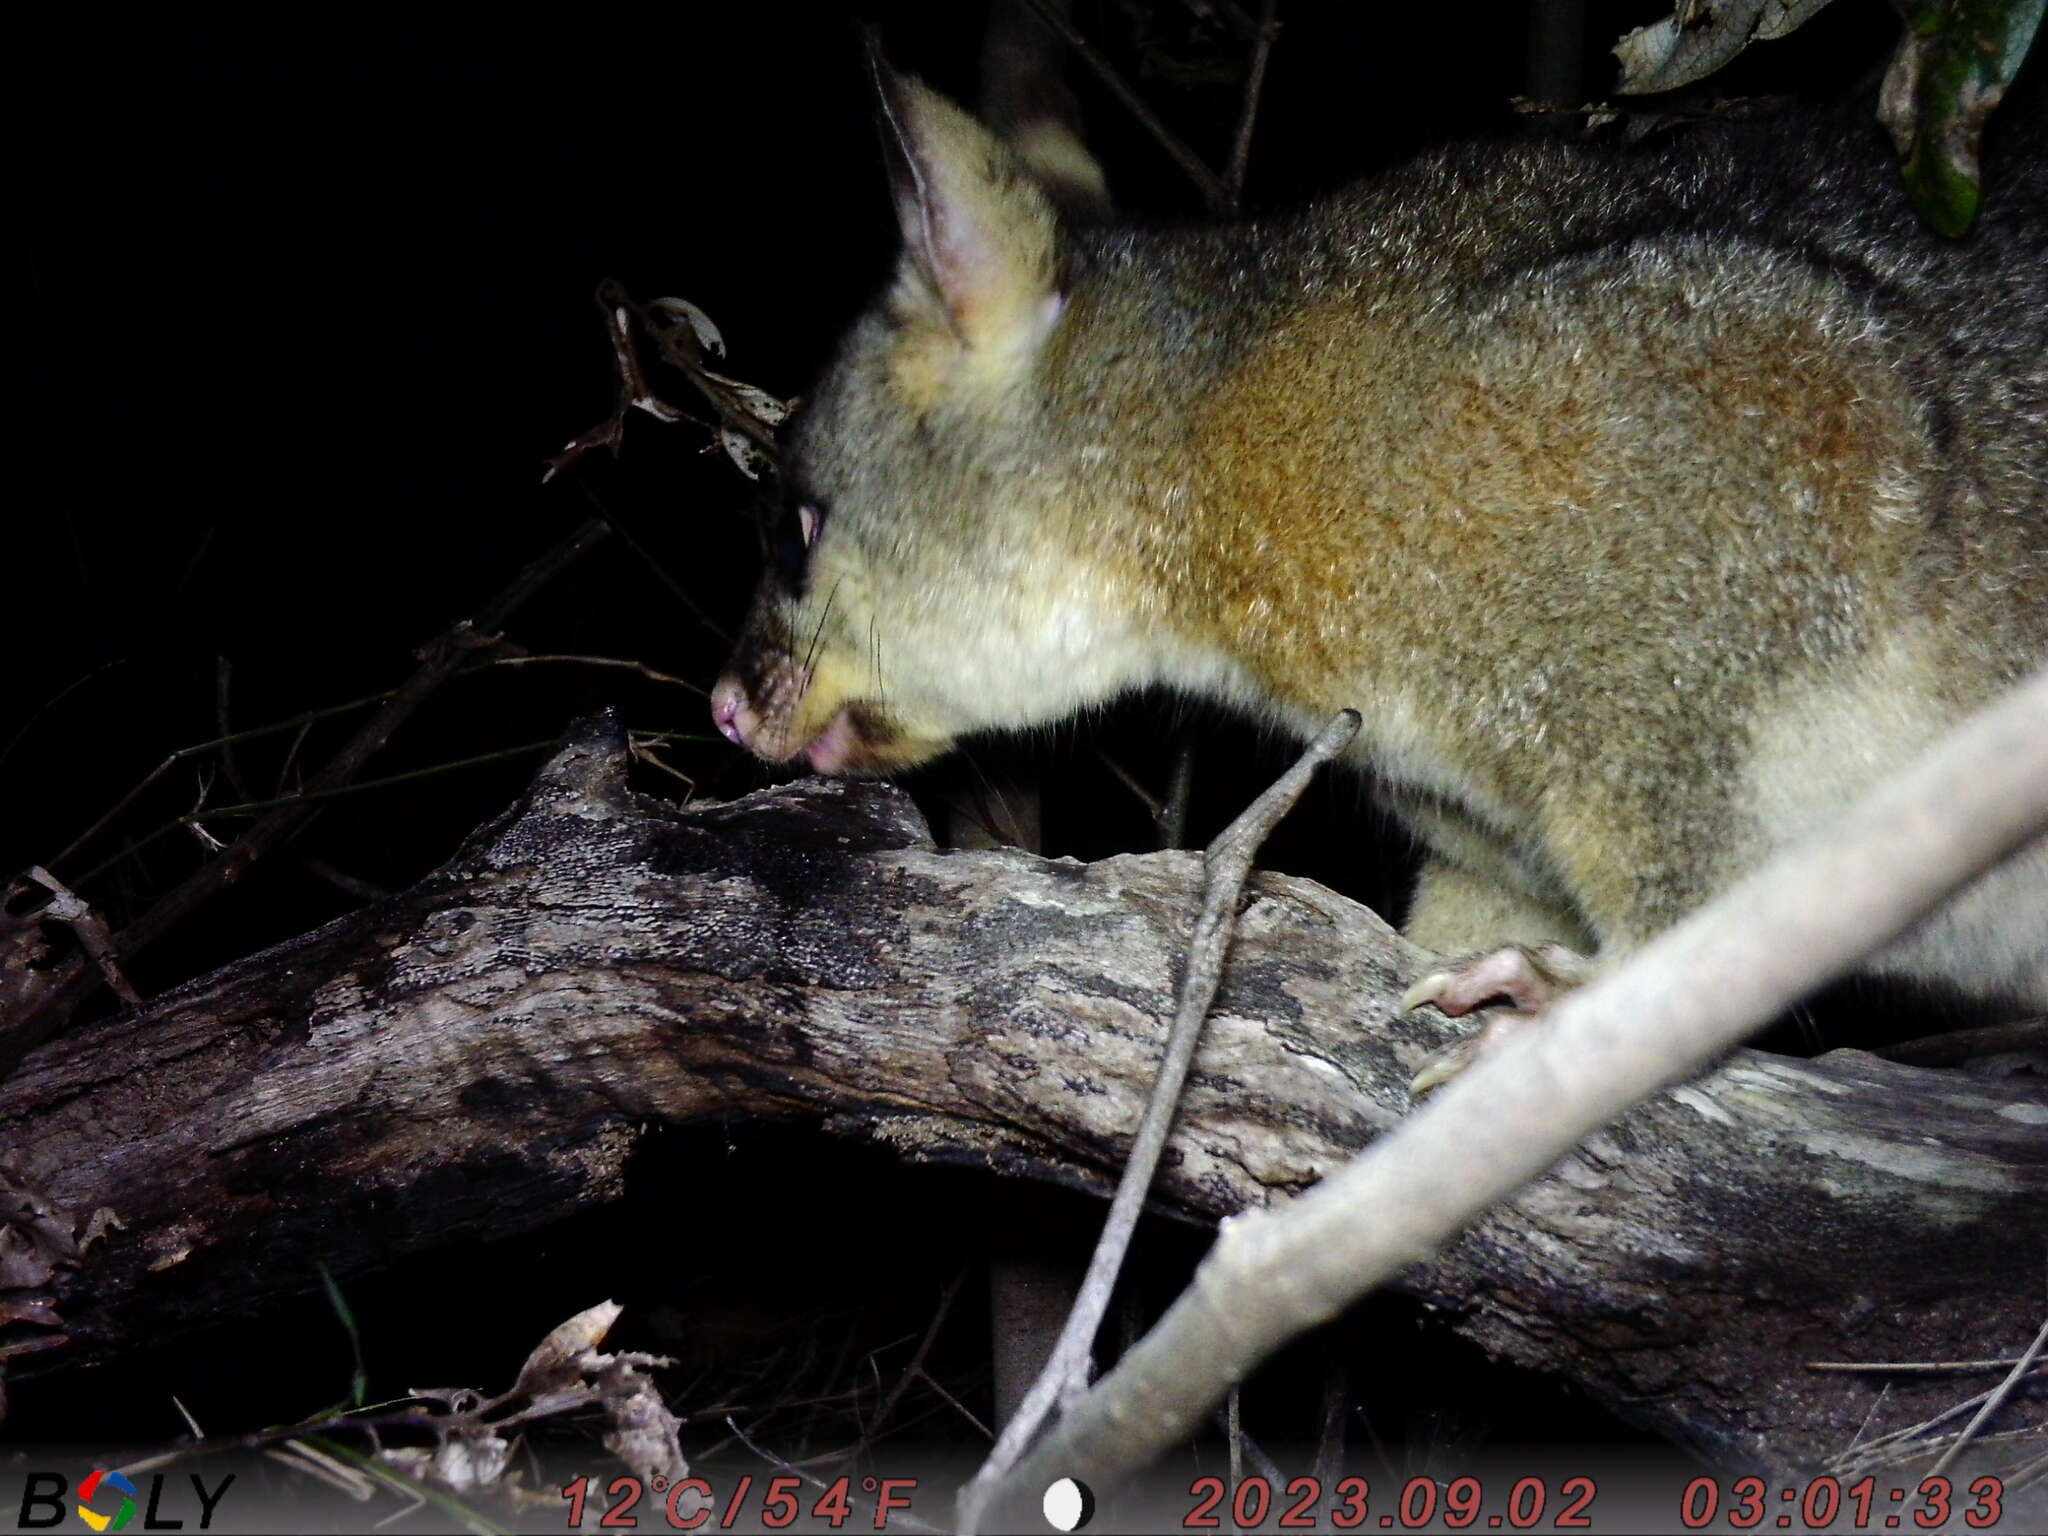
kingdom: Animalia
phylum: Chordata
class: Mammalia
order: Diprotodontia
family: Phalangeridae
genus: Trichosurus
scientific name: Trichosurus vulpecula
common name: Common brushtail
